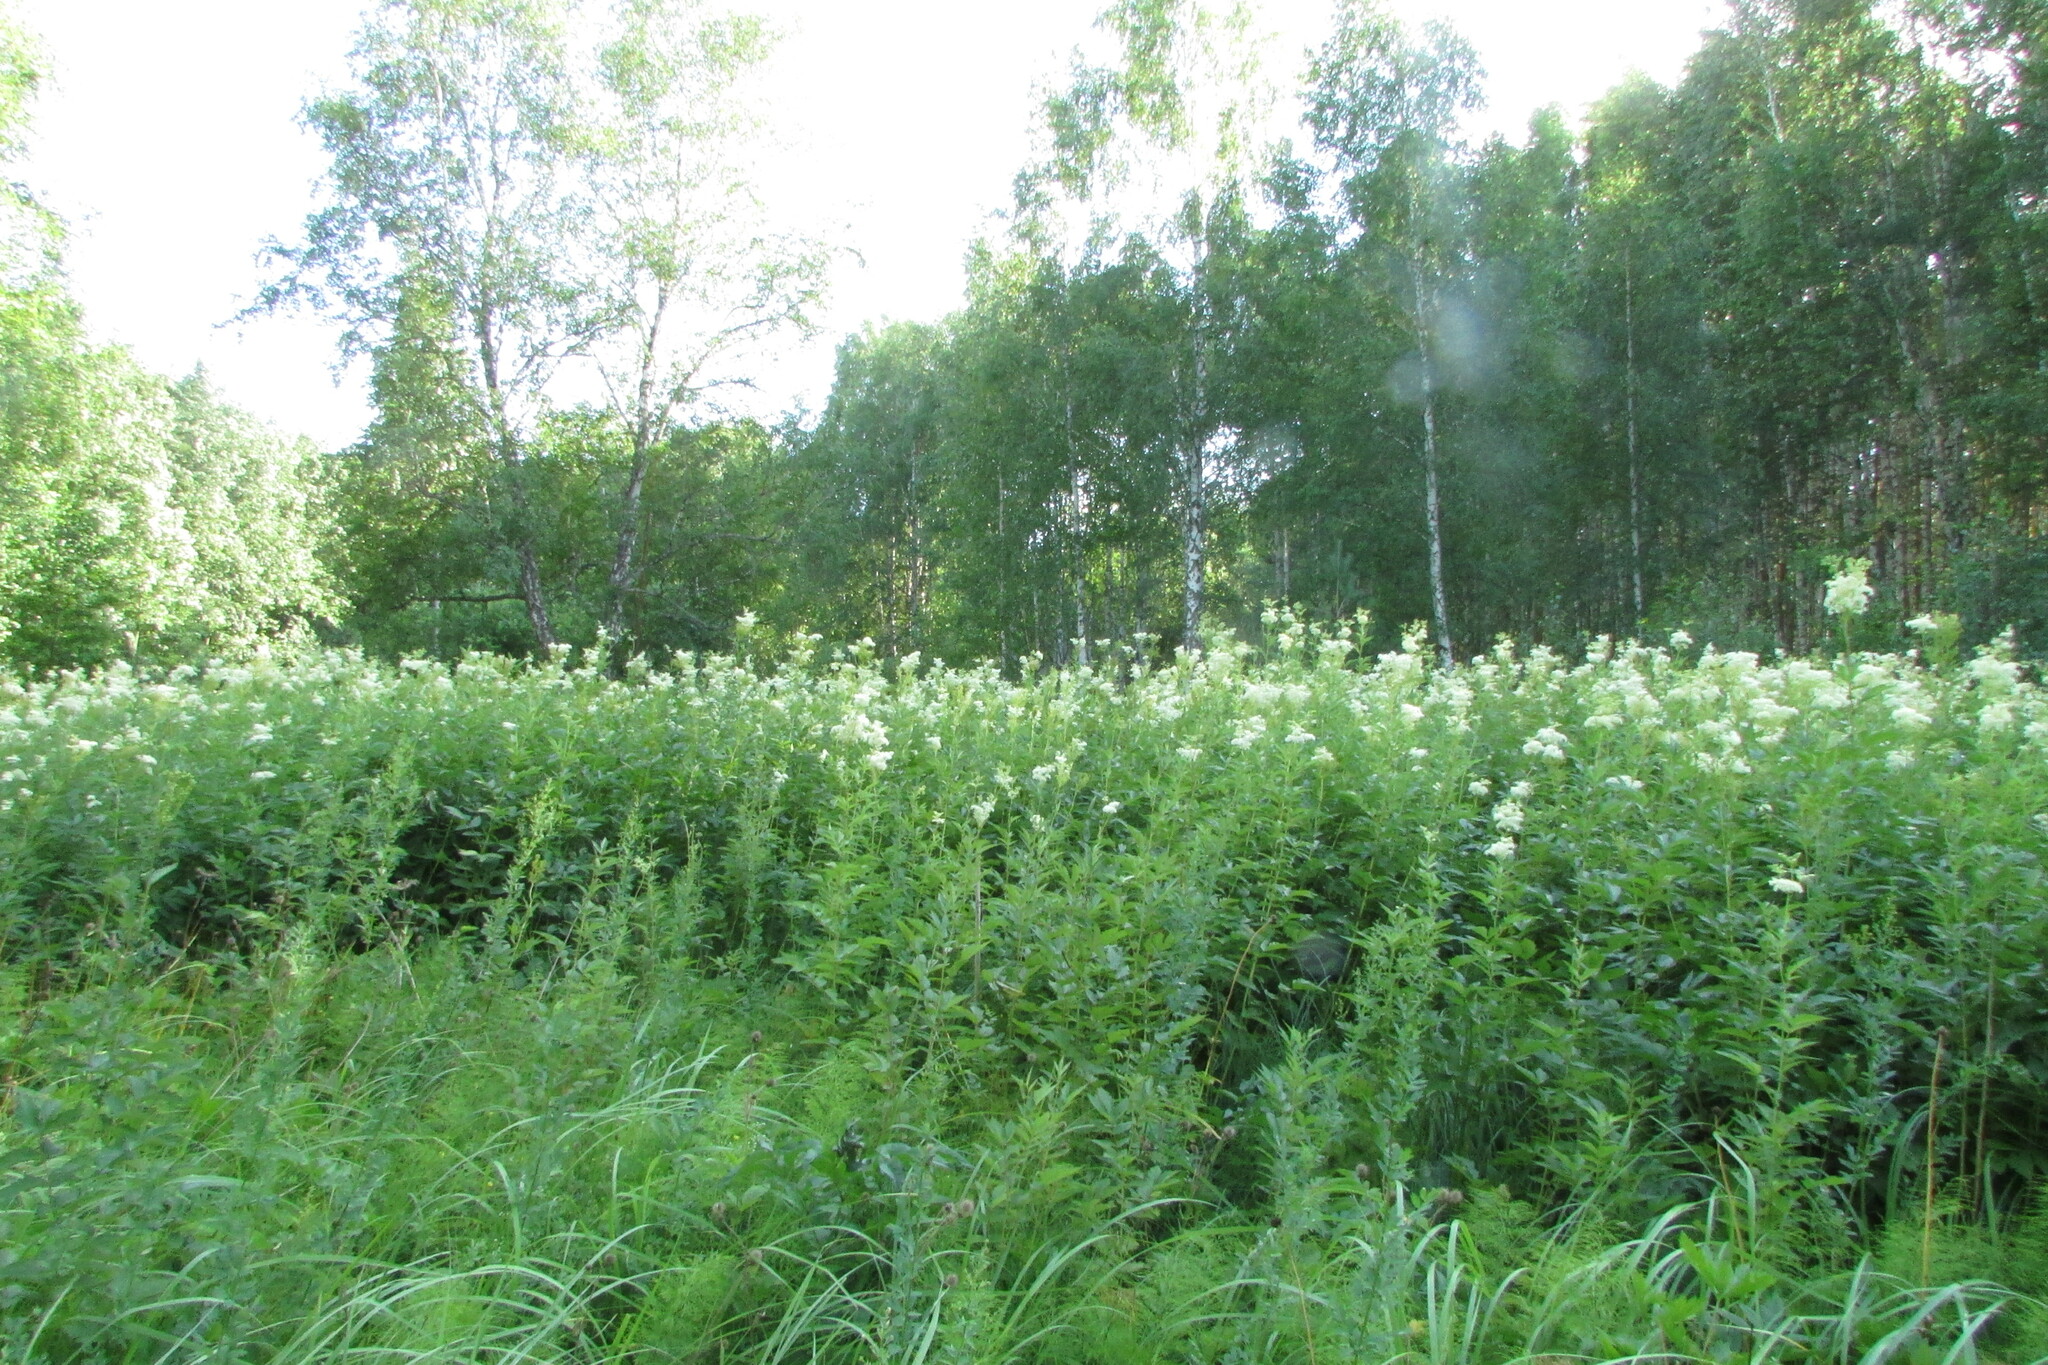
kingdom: Plantae
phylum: Tracheophyta
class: Magnoliopsida
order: Rosales
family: Rosaceae
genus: Filipendula
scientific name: Filipendula ulmaria
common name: Meadowsweet
